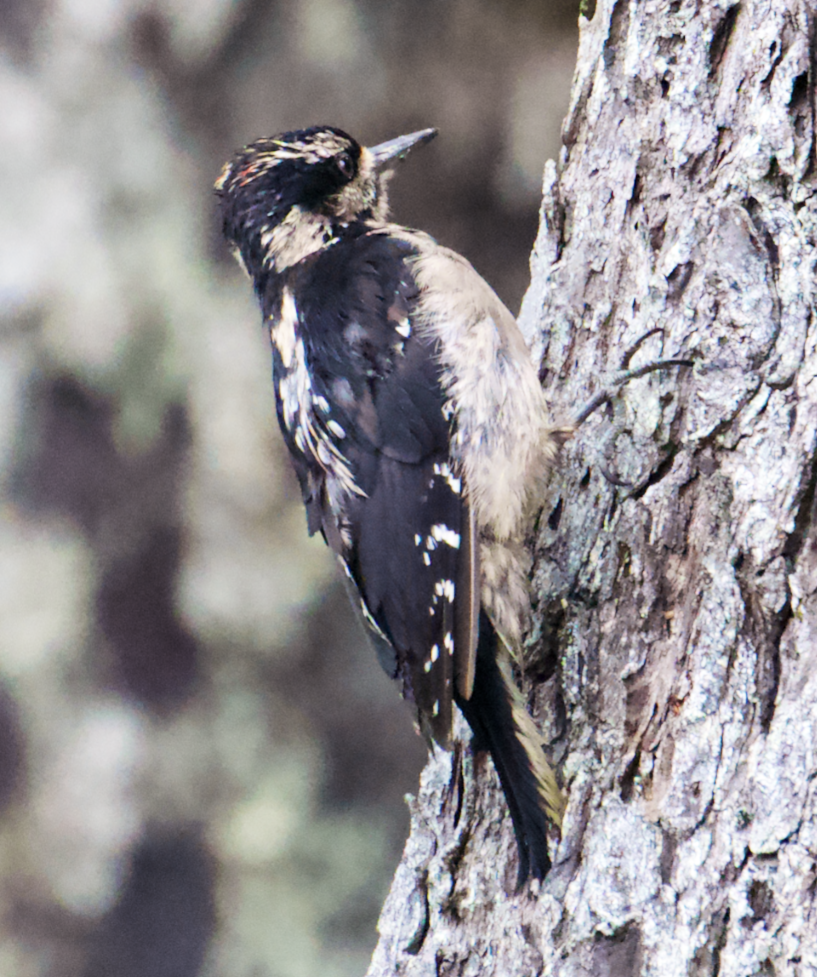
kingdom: Animalia
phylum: Chordata
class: Aves
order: Piciformes
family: Picidae
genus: Leuconotopicus
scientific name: Leuconotopicus villosus
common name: Hairy woodpecker
